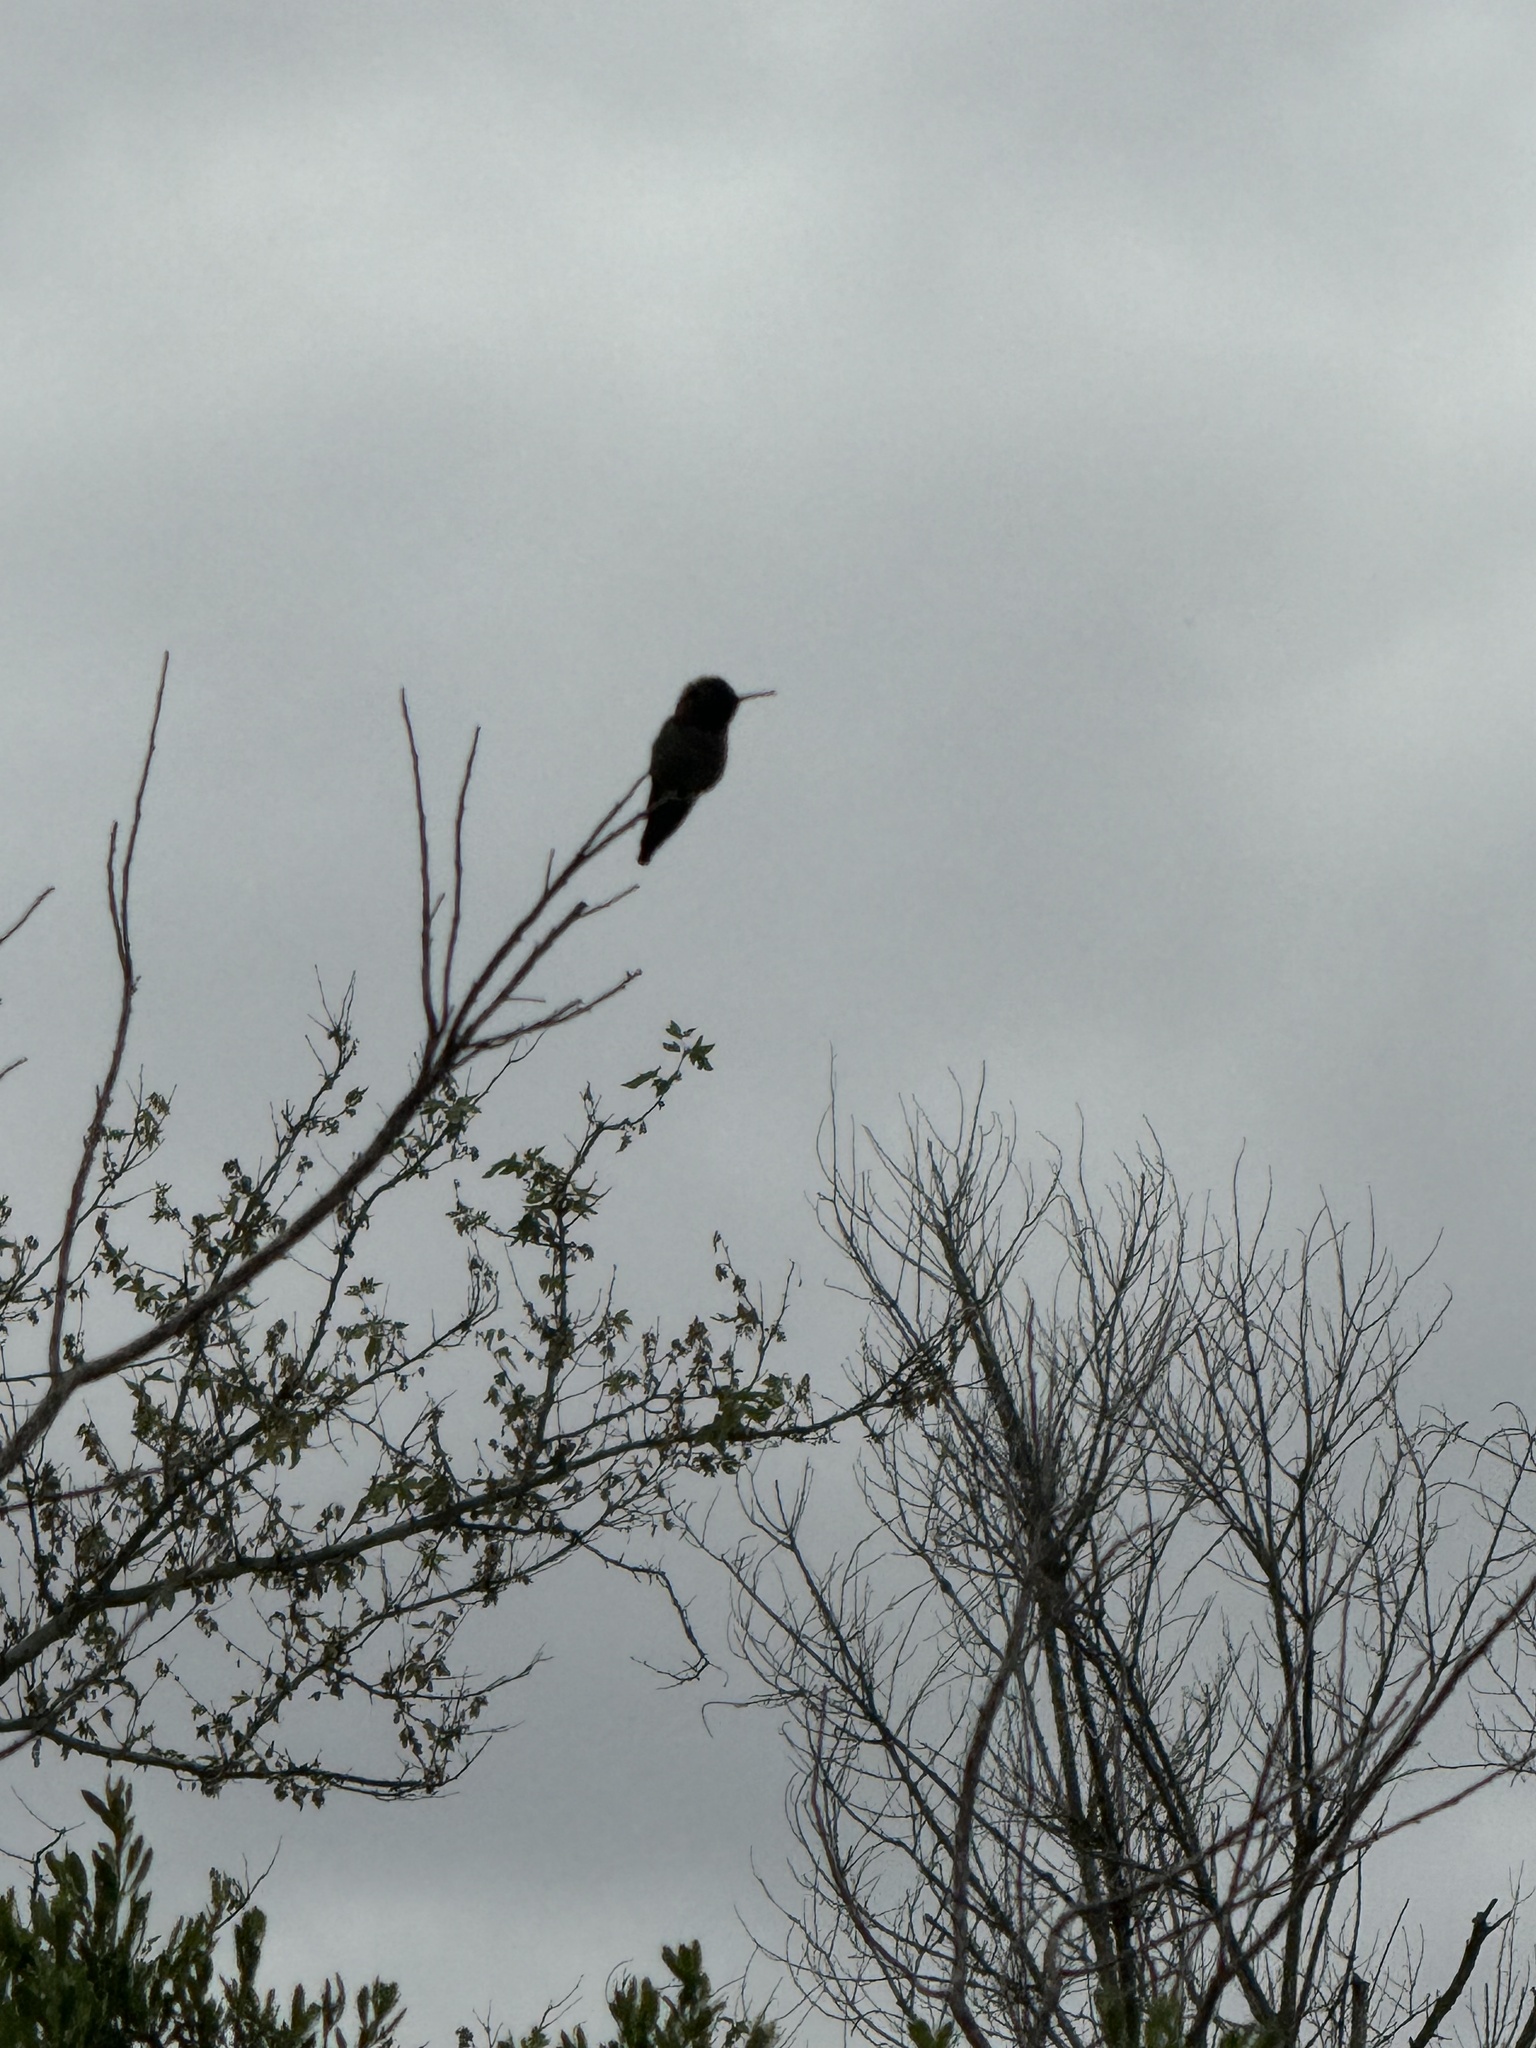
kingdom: Animalia
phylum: Chordata
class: Aves
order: Apodiformes
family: Trochilidae
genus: Calypte
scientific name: Calypte anna
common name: Anna's hummingbird
